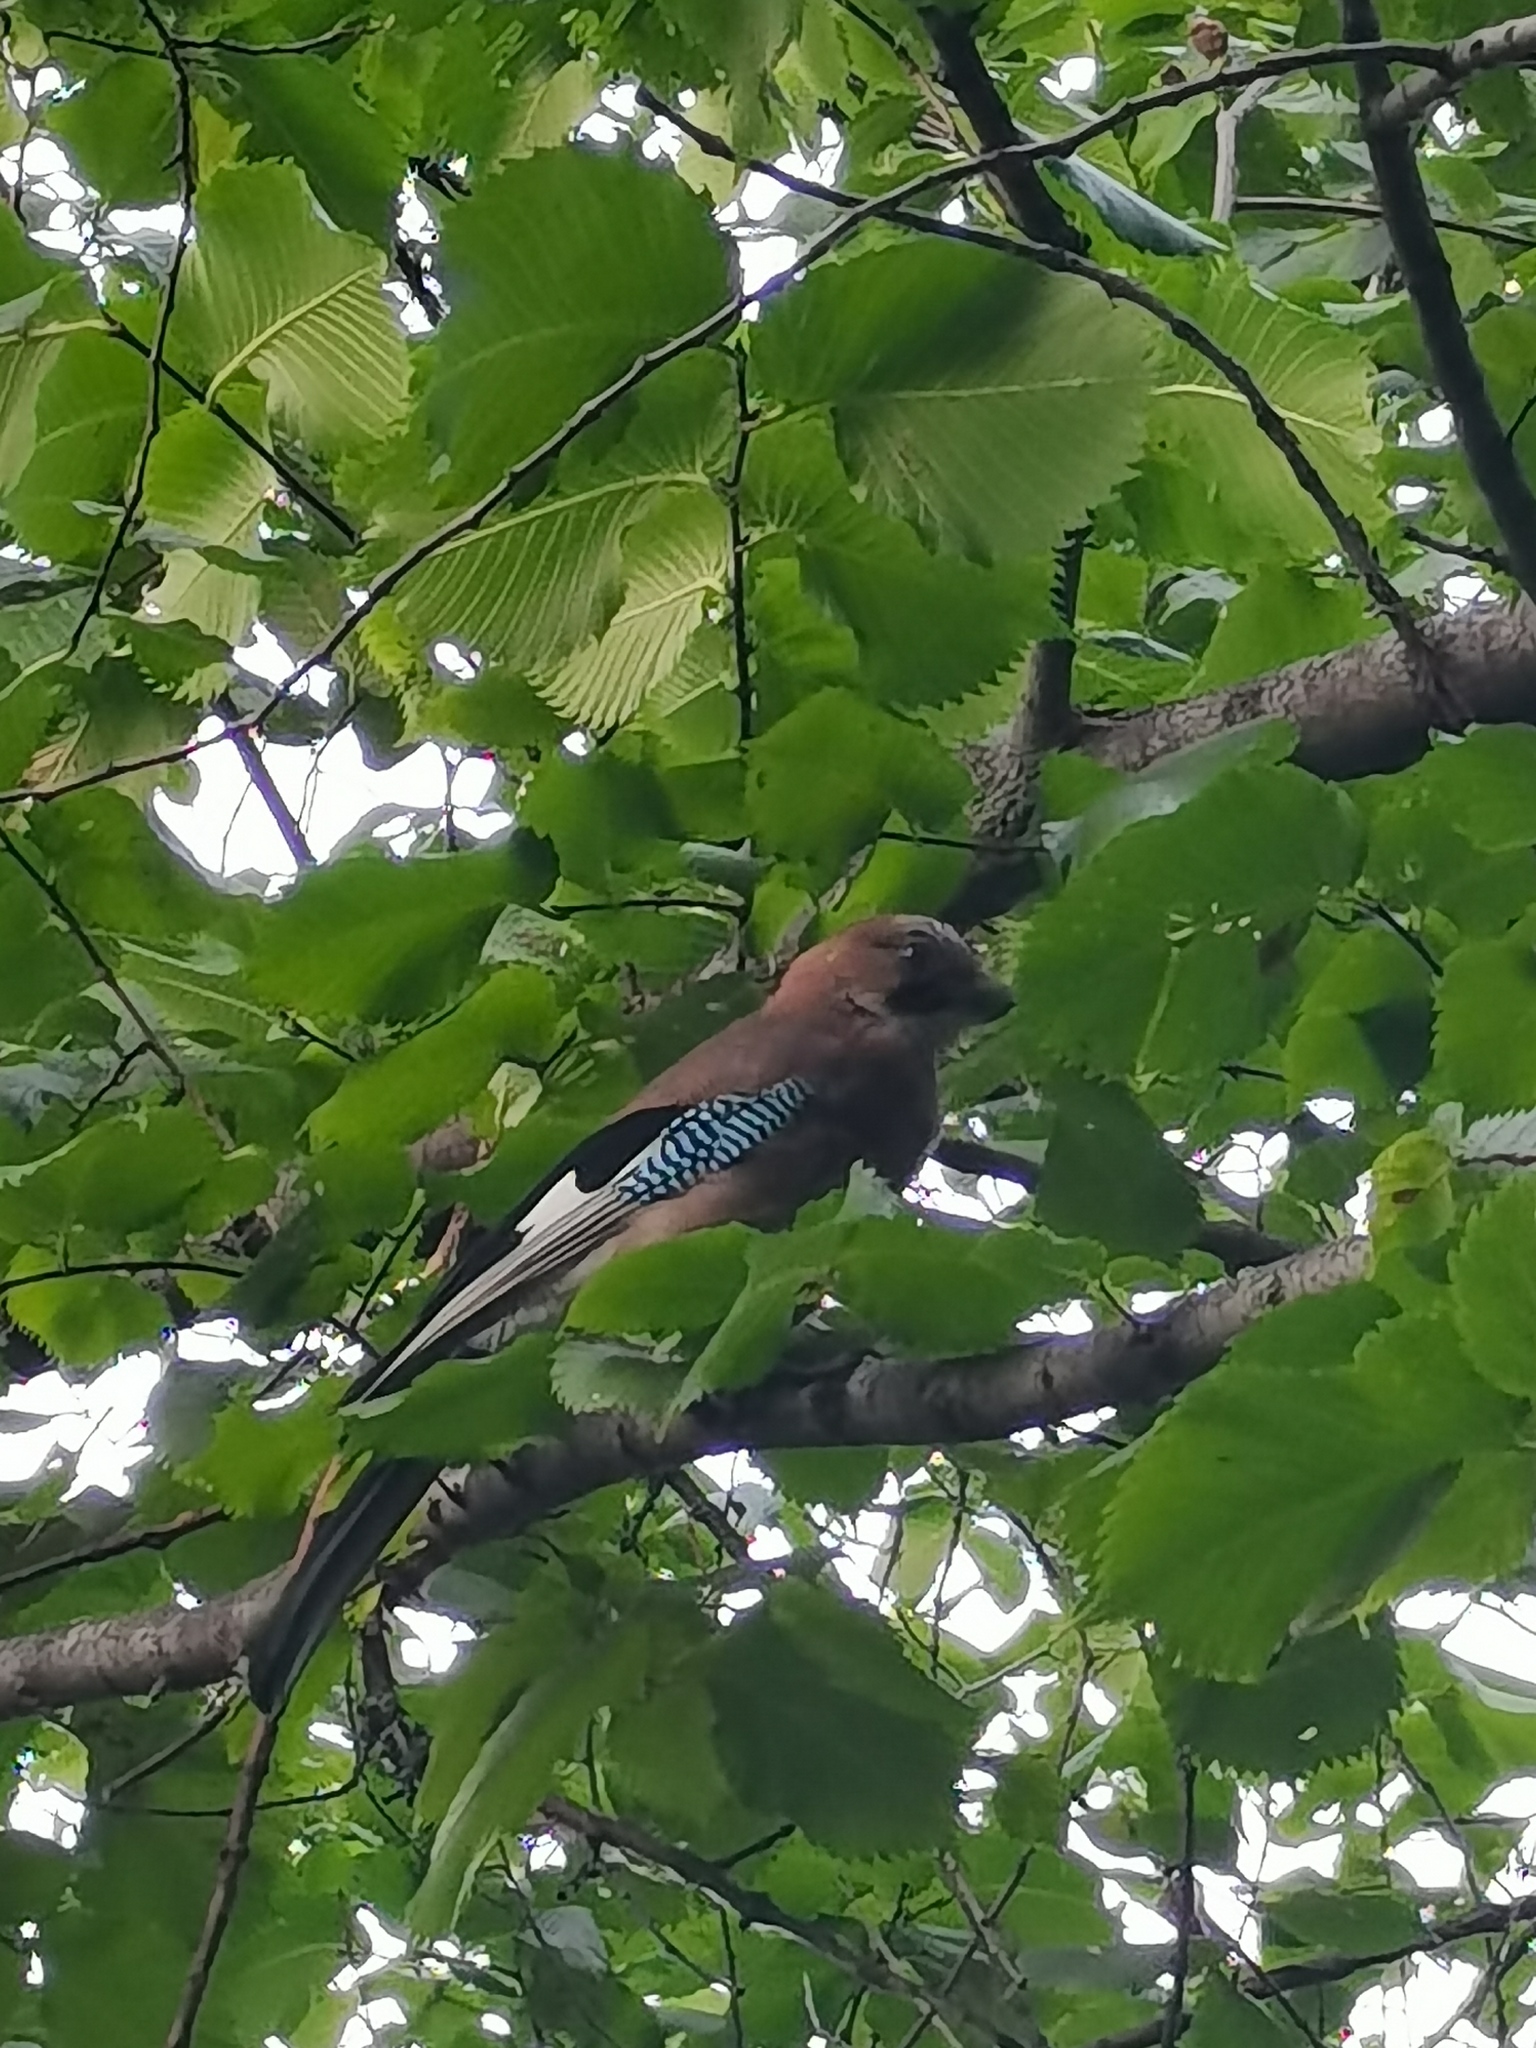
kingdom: Animalia
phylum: Chordata
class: Aves
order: Passeriformes
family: Corvidae
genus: Garrulus
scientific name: Garrulus glandarius
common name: Eurasian jay
